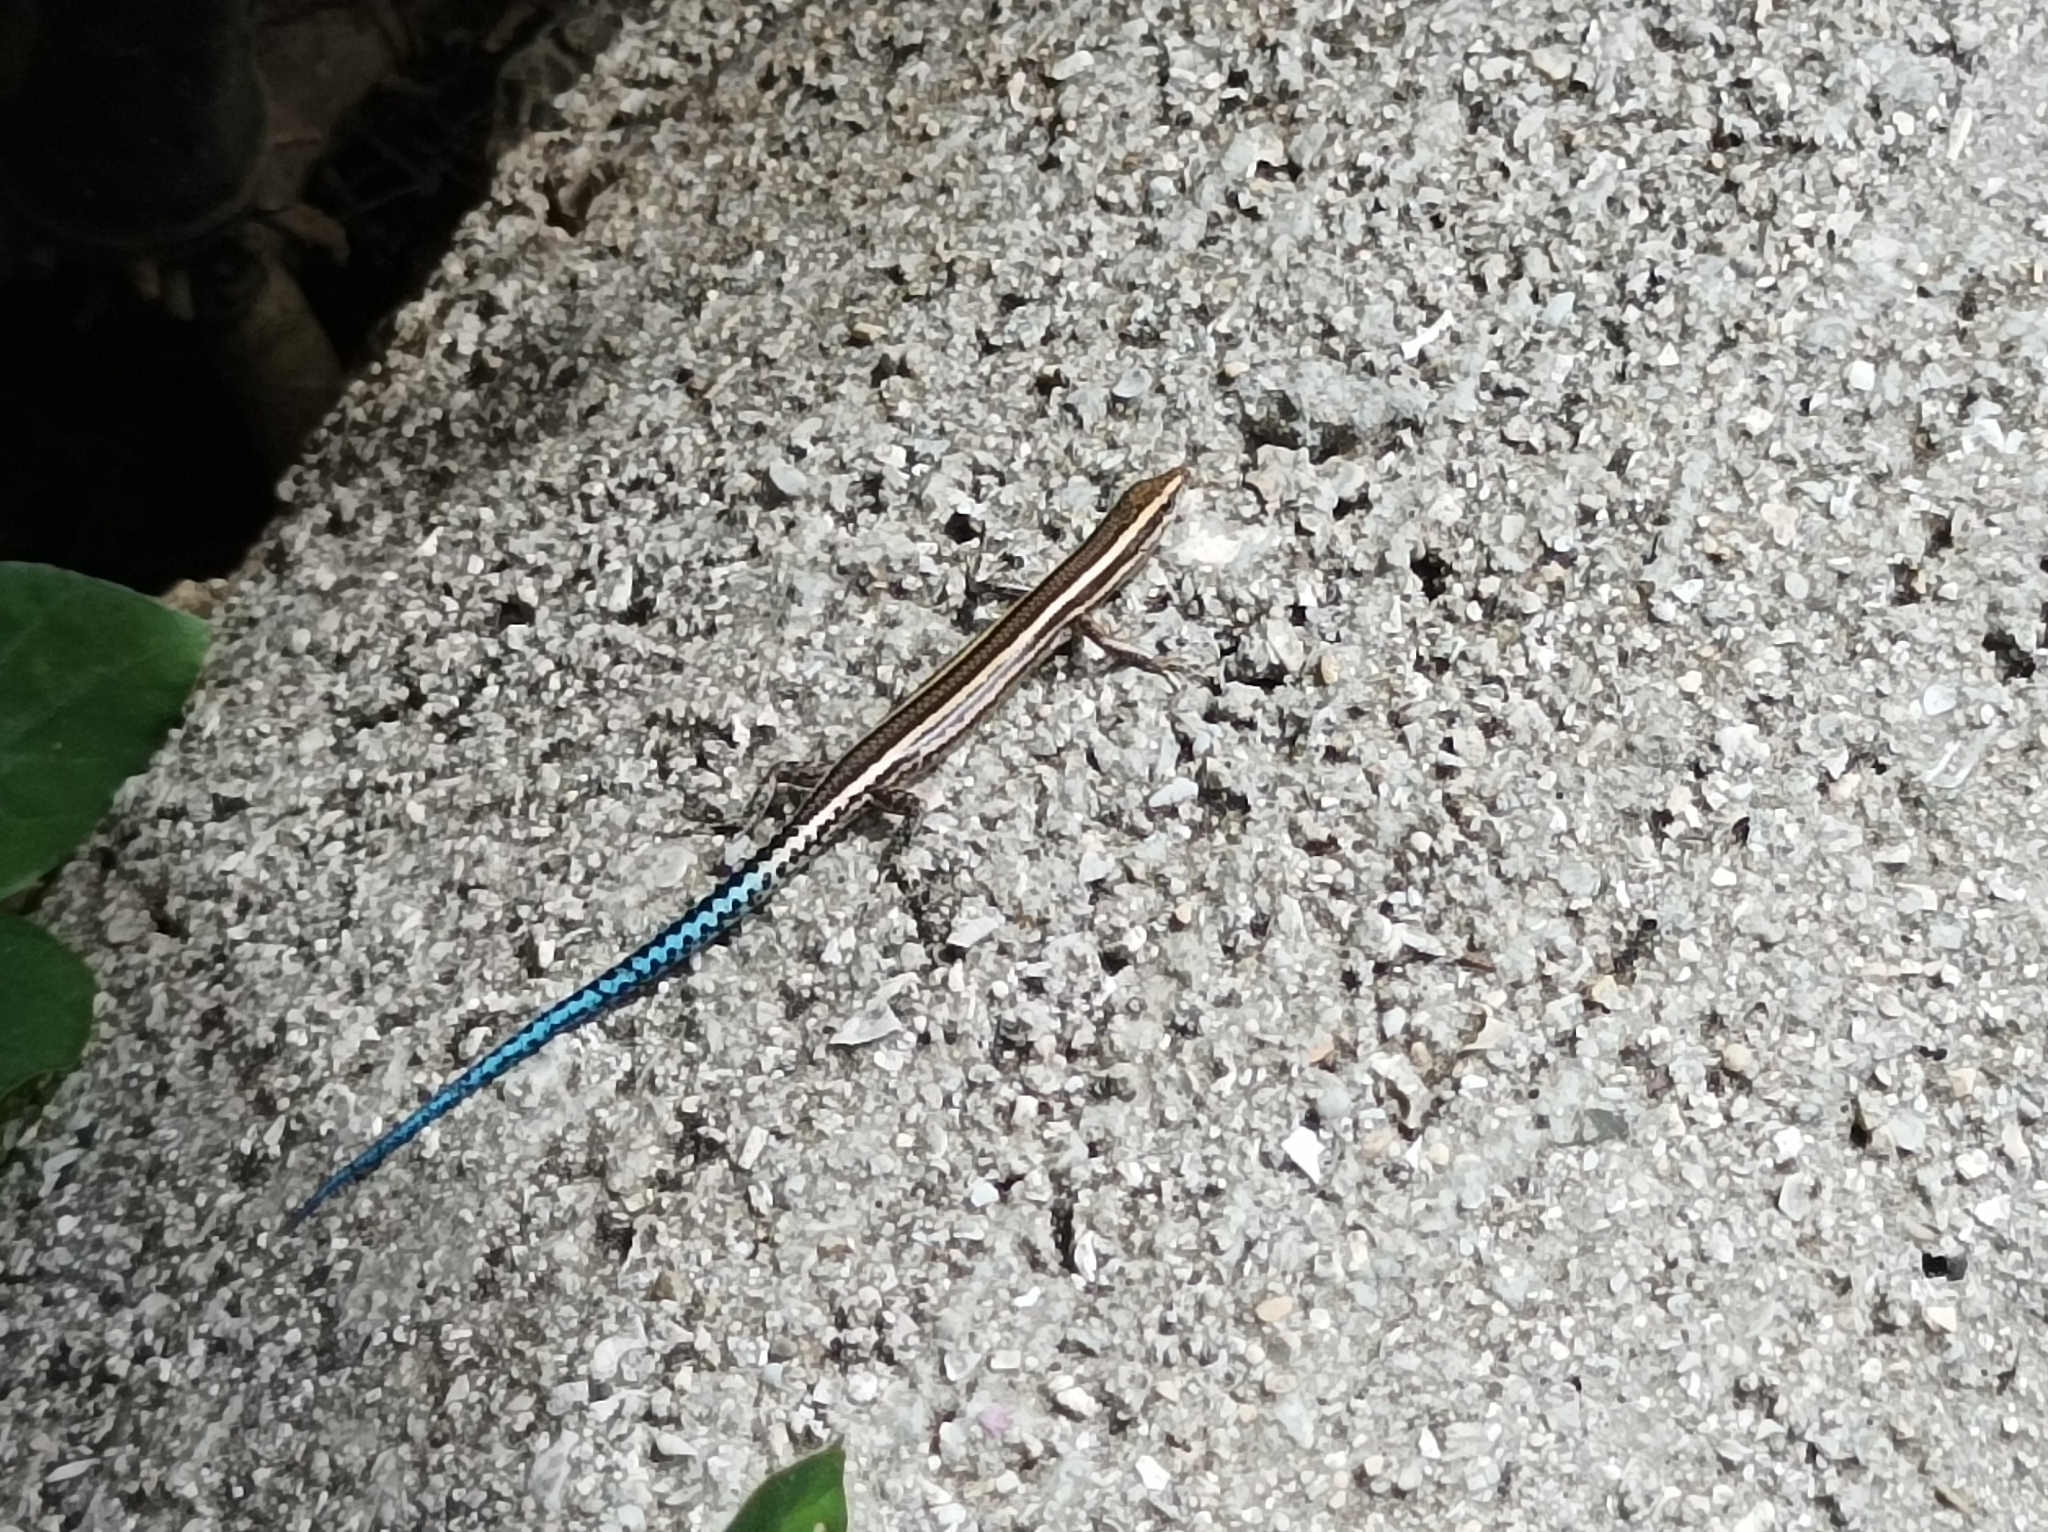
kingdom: Animalia
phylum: Chordata
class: Squamata
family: Scincidae
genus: Cryptoblepharus
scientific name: Cryptoblepharus novohebridicus
